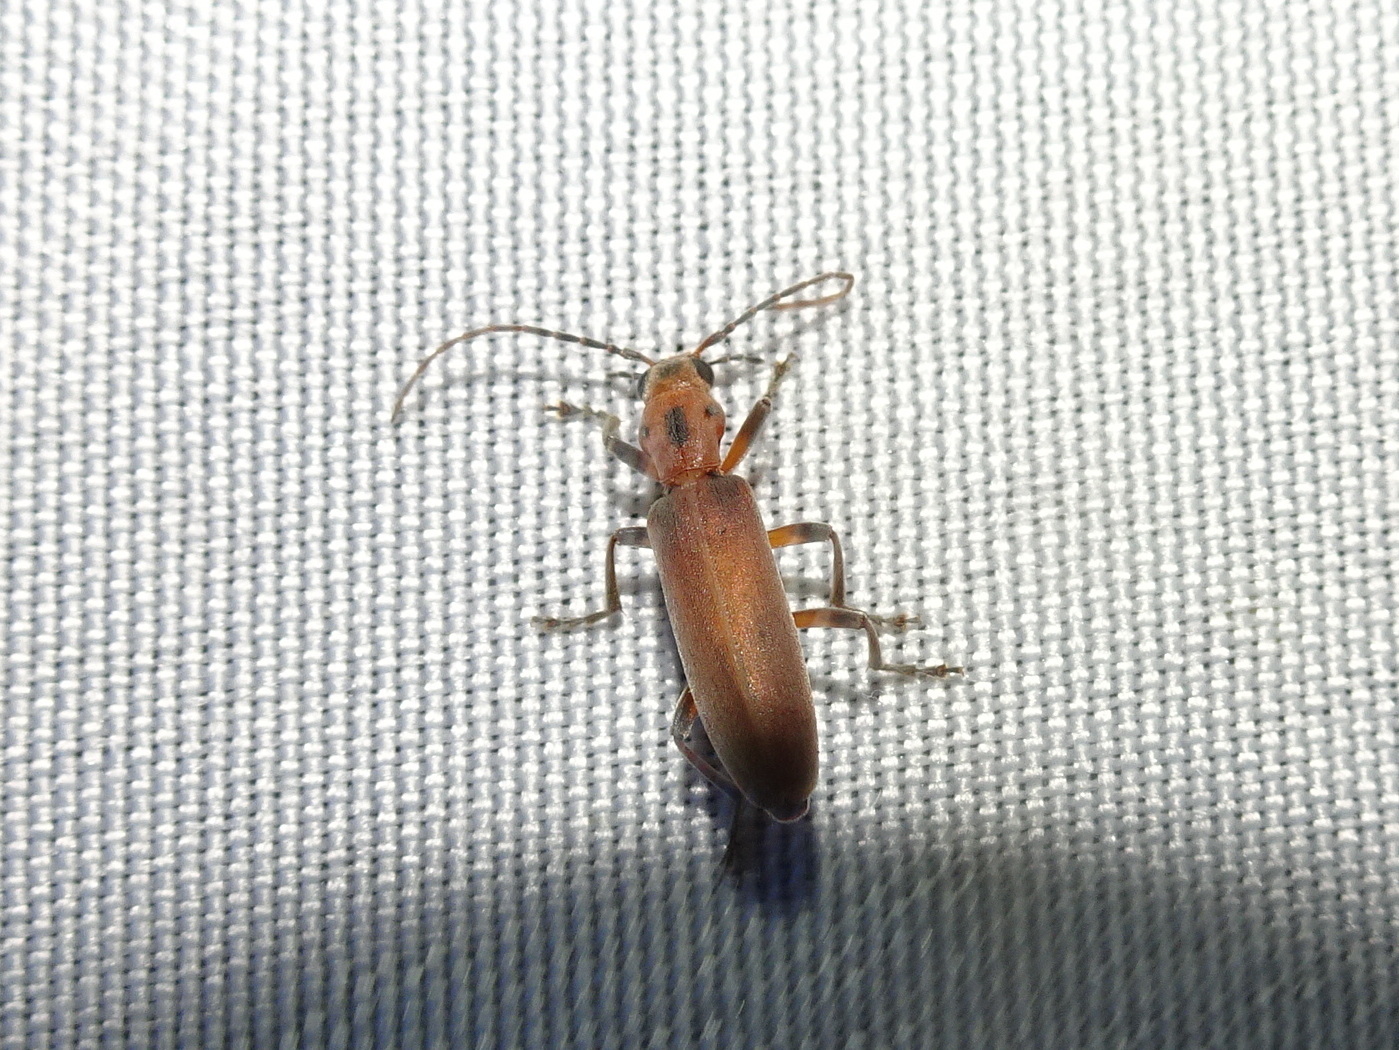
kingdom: Animalia
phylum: Arthropoda
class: Insecta
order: Coleoptera
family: Oedemeridae
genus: Oxacis
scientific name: Oxacis trimaculata
